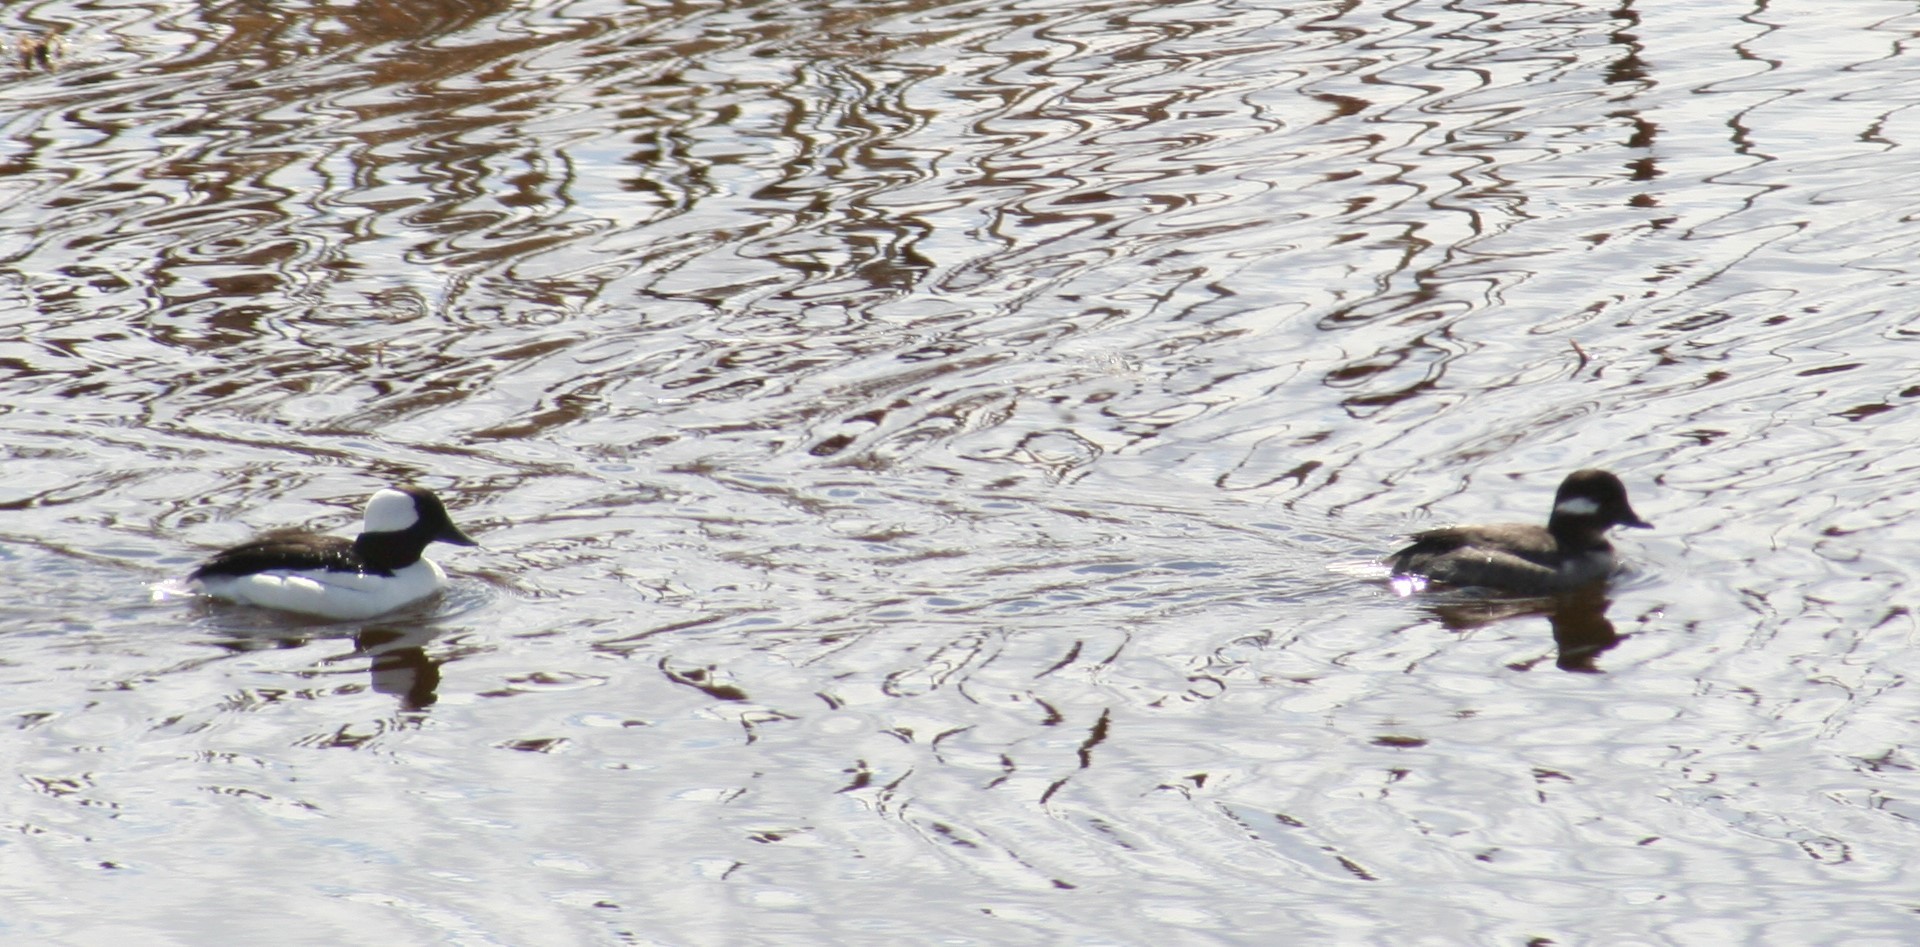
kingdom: Animalia
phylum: Chordata
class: Aves
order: Anseriformes
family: Anatidae
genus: Bucephala
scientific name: Bucephala albeola
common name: Bufflehead
